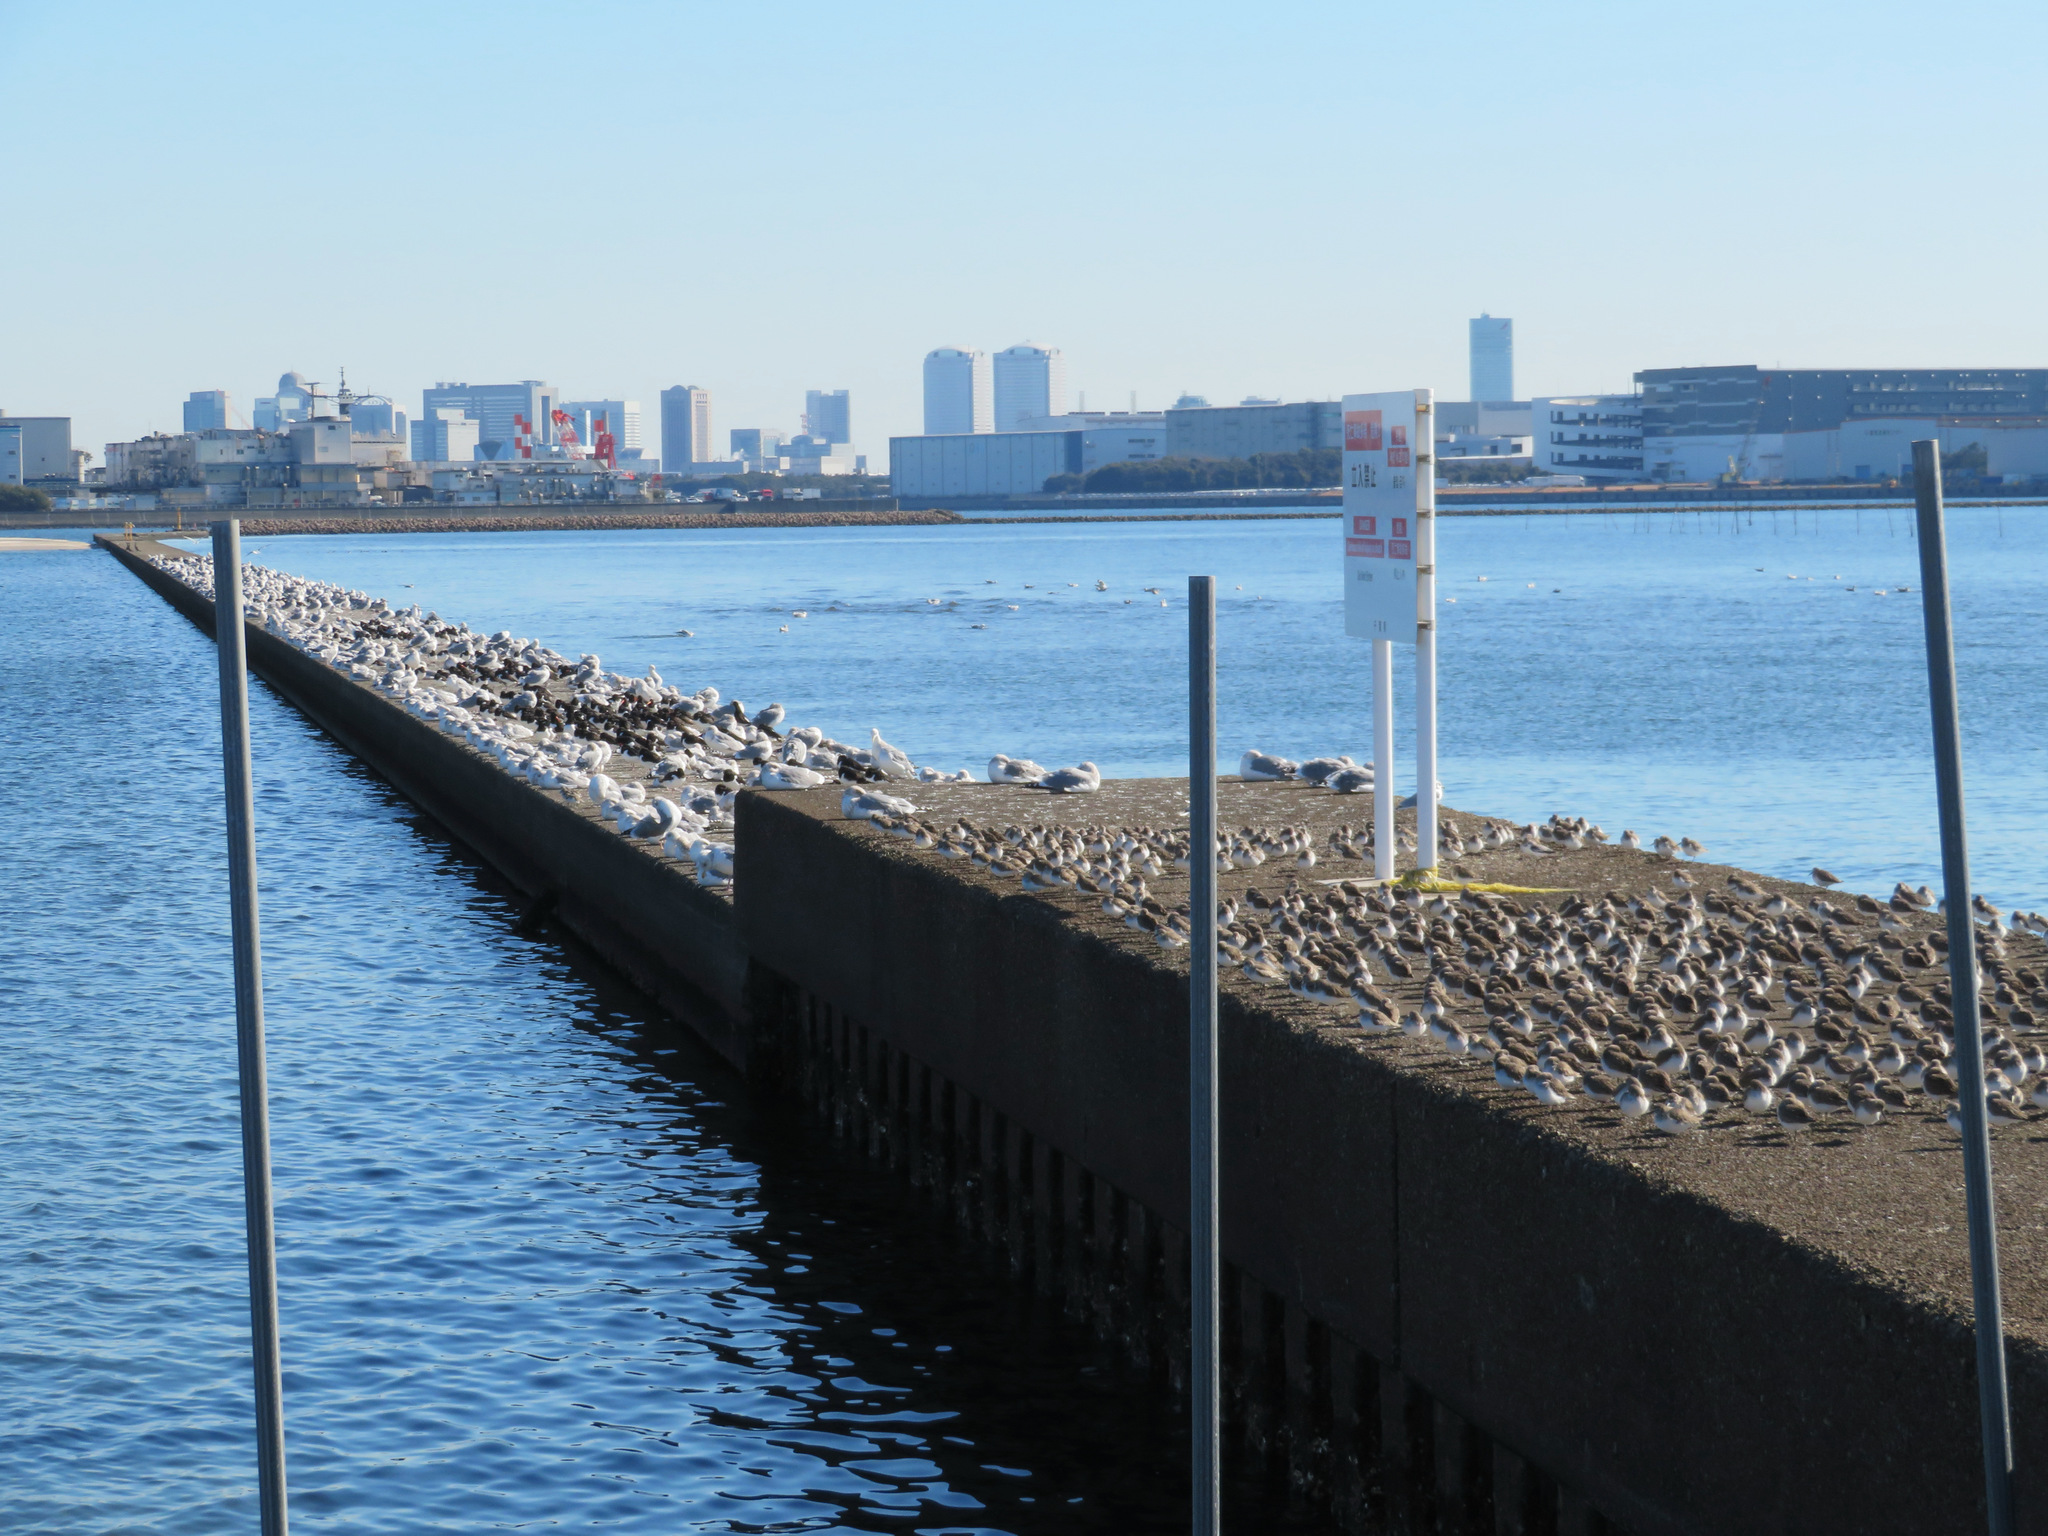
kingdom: Animalia
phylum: Chordata
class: Aves
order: Charadriiformes
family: Scolopacidae
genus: Calidris
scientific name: Calidris alpina
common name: Dunlin
